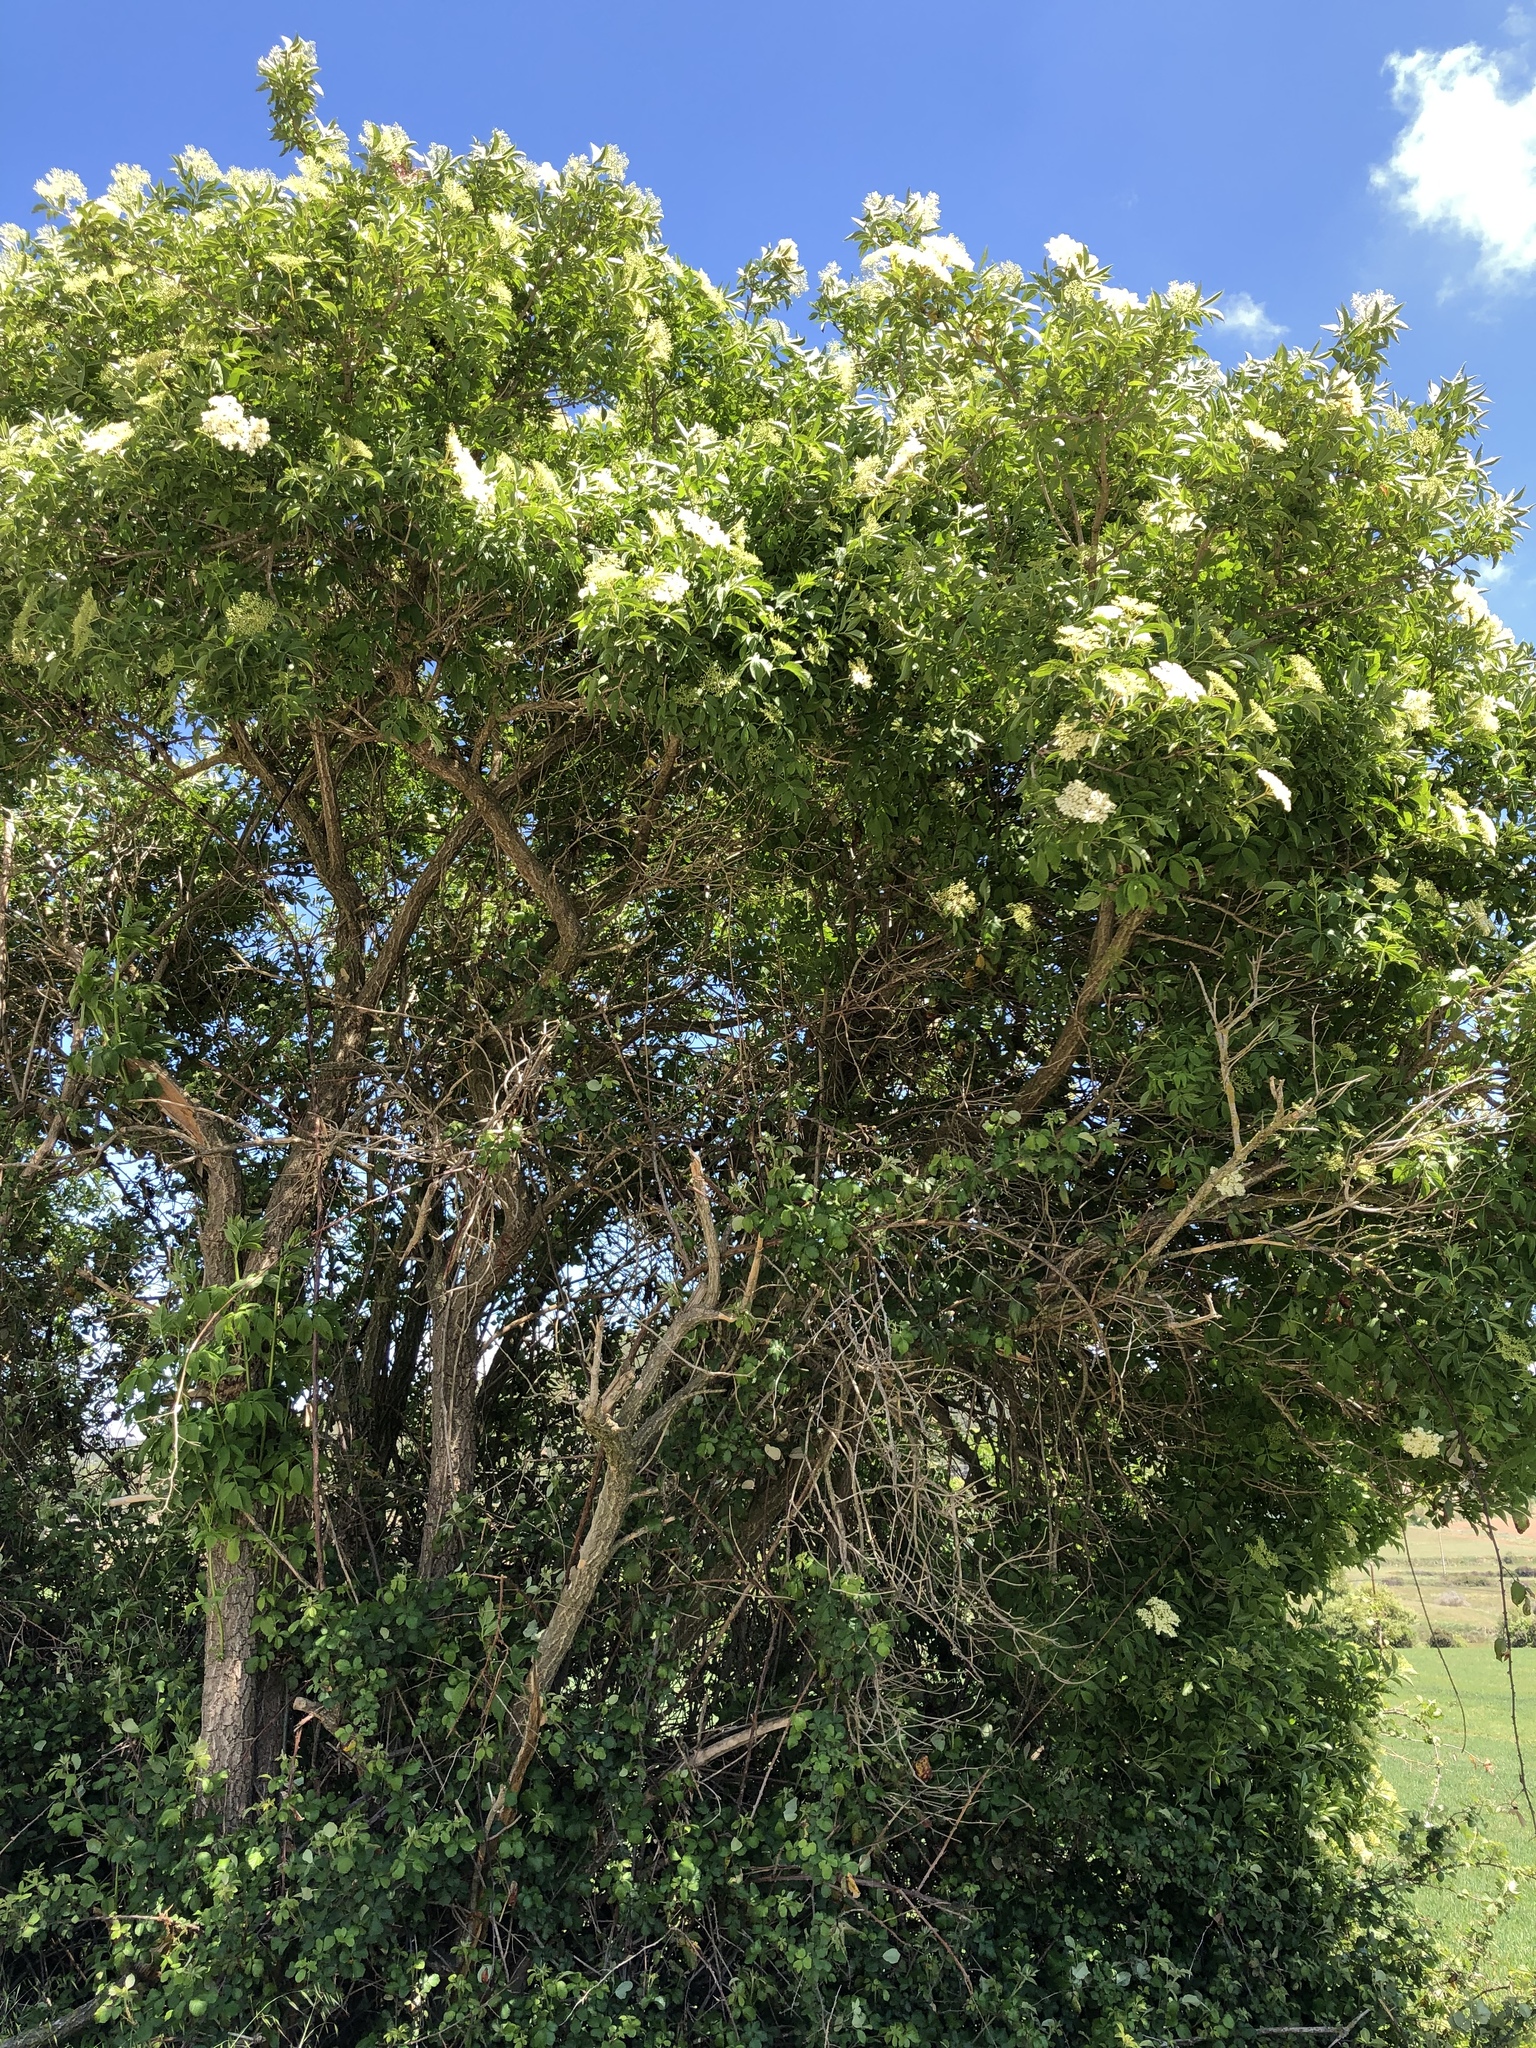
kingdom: Plantae
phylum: Tracheophyta
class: Magnoliopsida
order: Dipsacales
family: Viburnaceae
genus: Sambucus
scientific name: Sambucus nigra
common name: Elder
